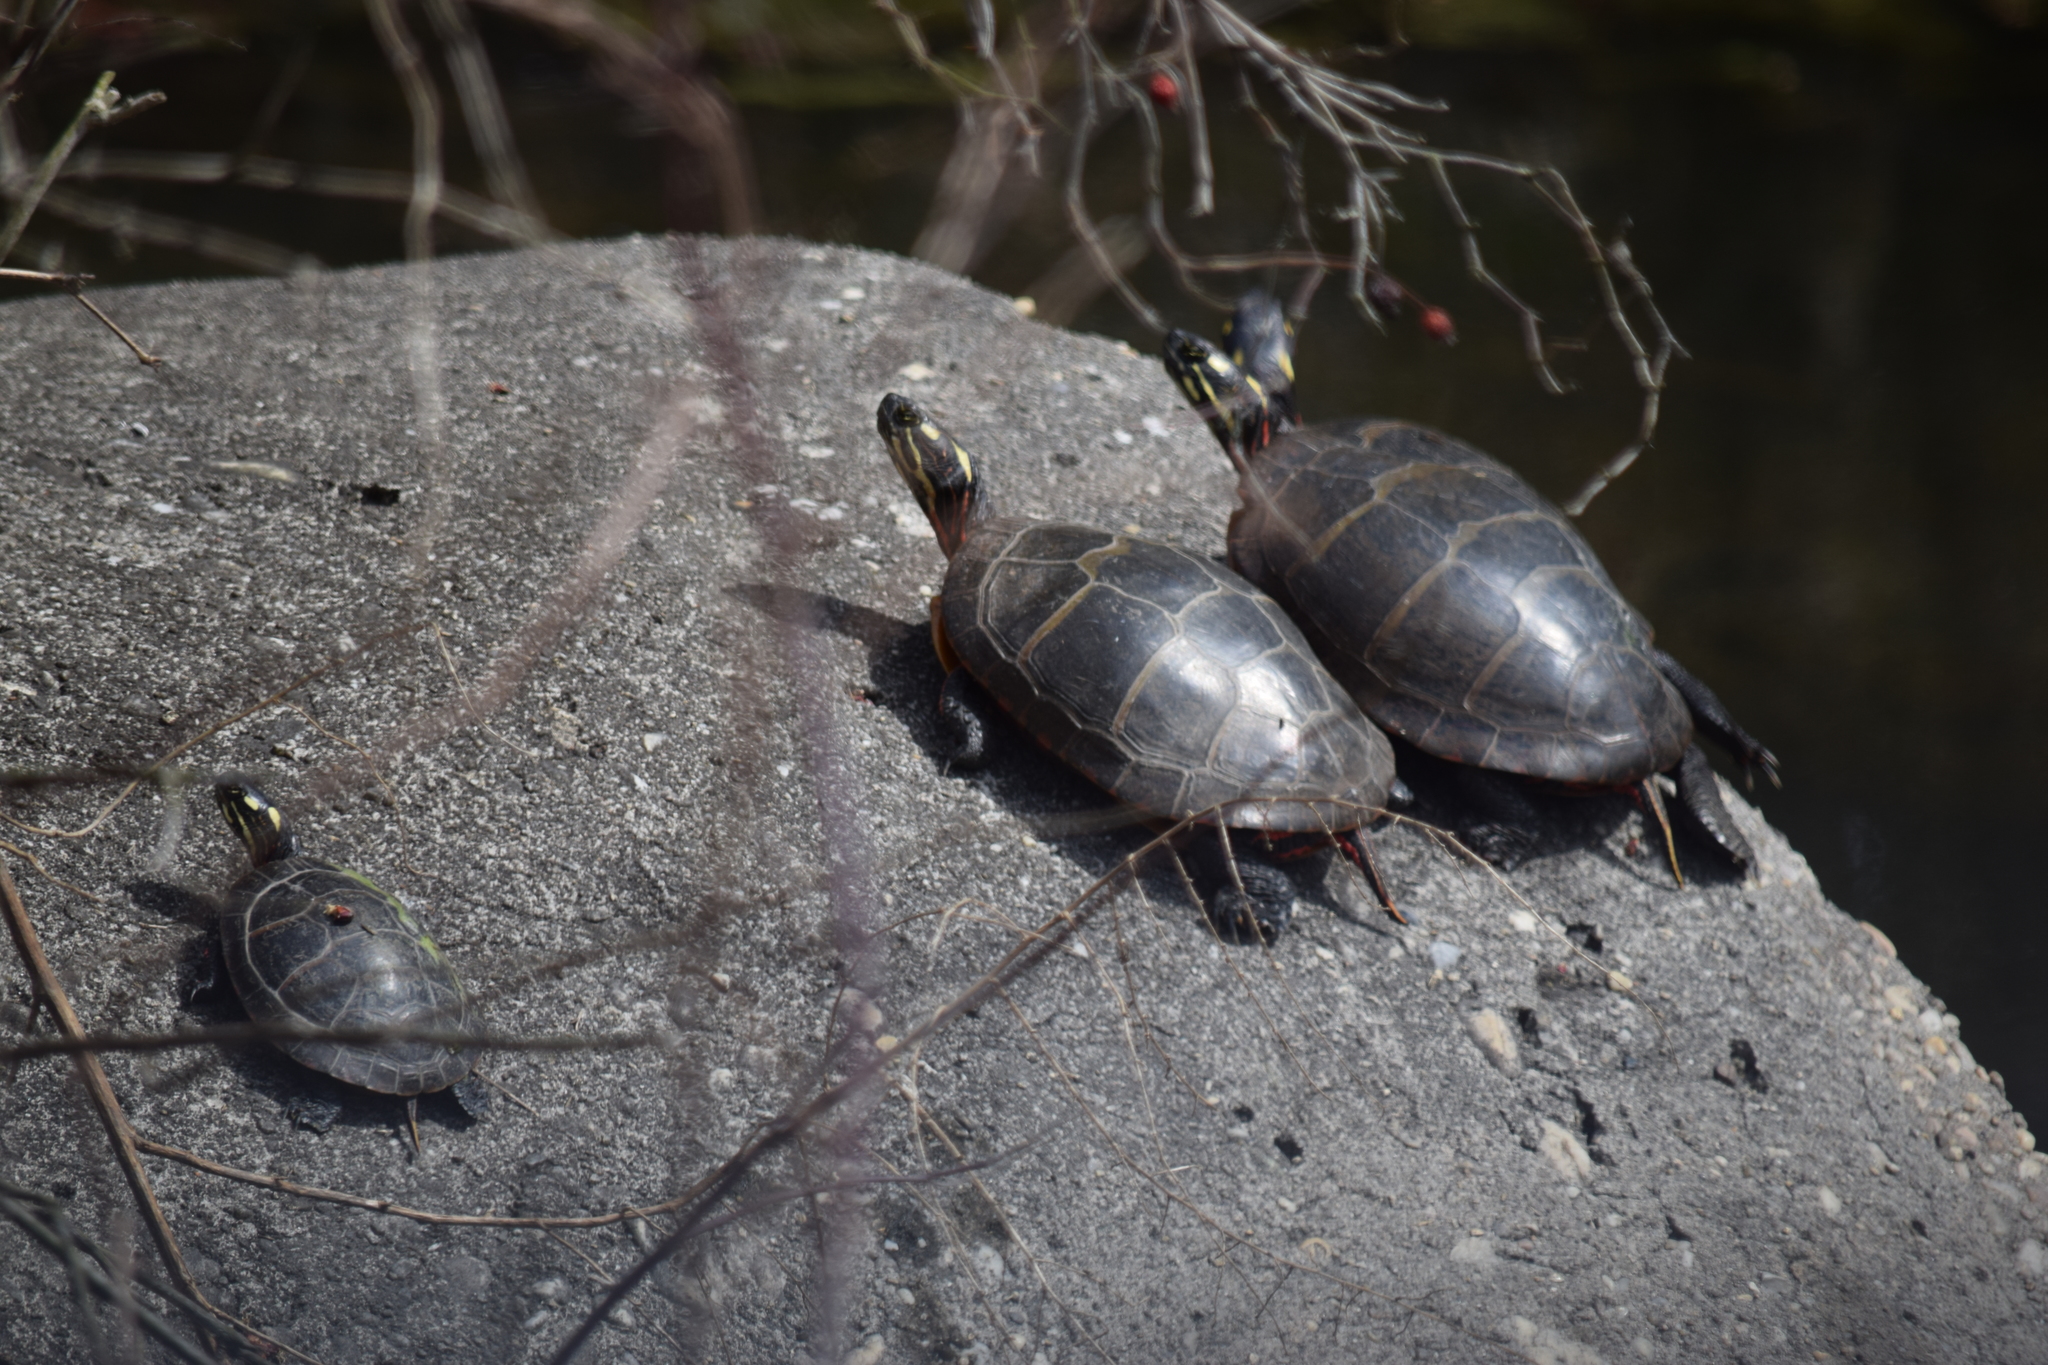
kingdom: Animalia
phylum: Chordata
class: Testudines
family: Emydidae
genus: Chrysemys
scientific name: Chrysemys picta
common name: Painted turtle
